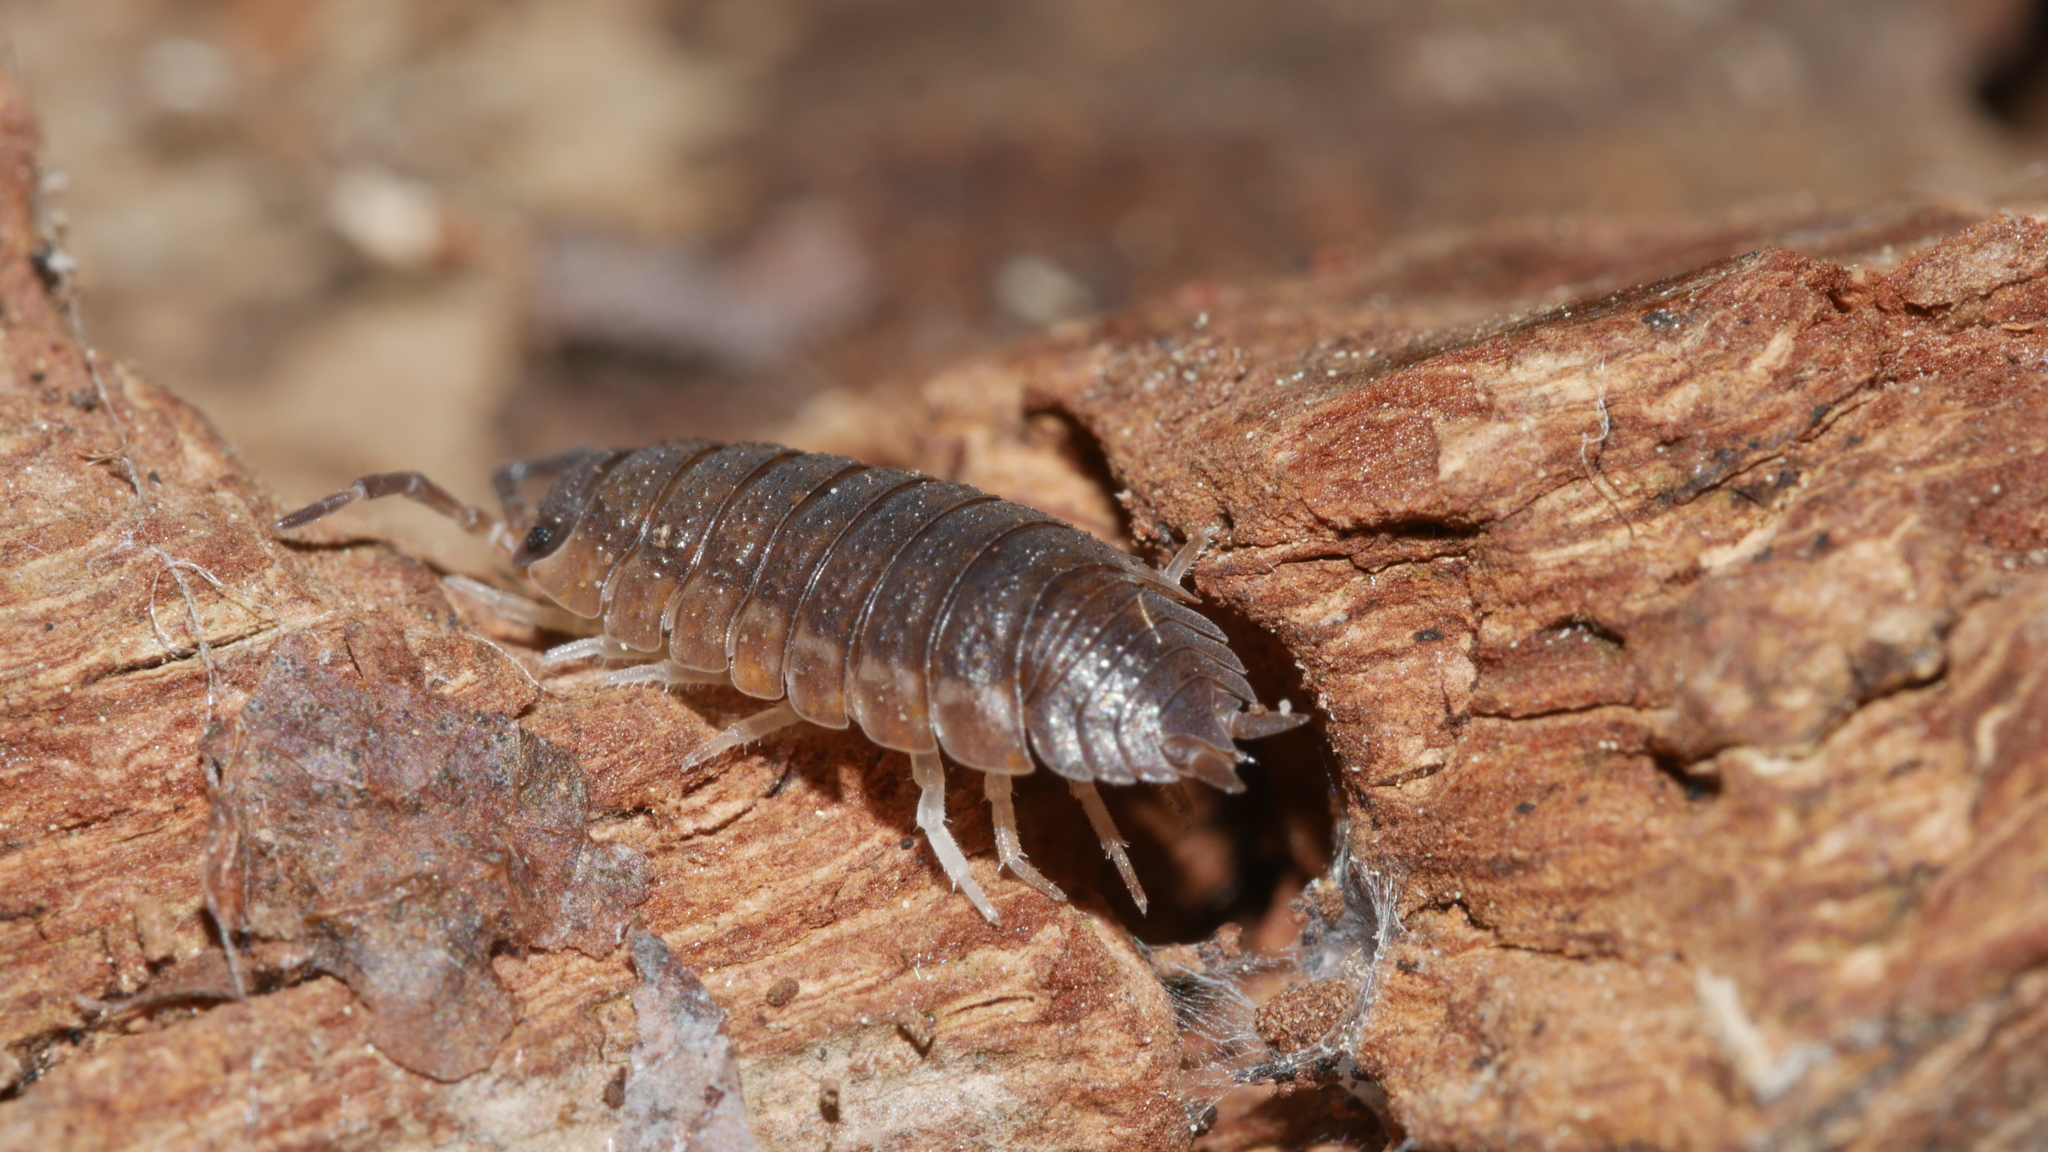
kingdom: Animalia
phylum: Arthropoda
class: Malacostraca
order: Isopoda
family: Porcellionidae
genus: Porcellio
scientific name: Porcellio scaber
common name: Common rough woodlouse
